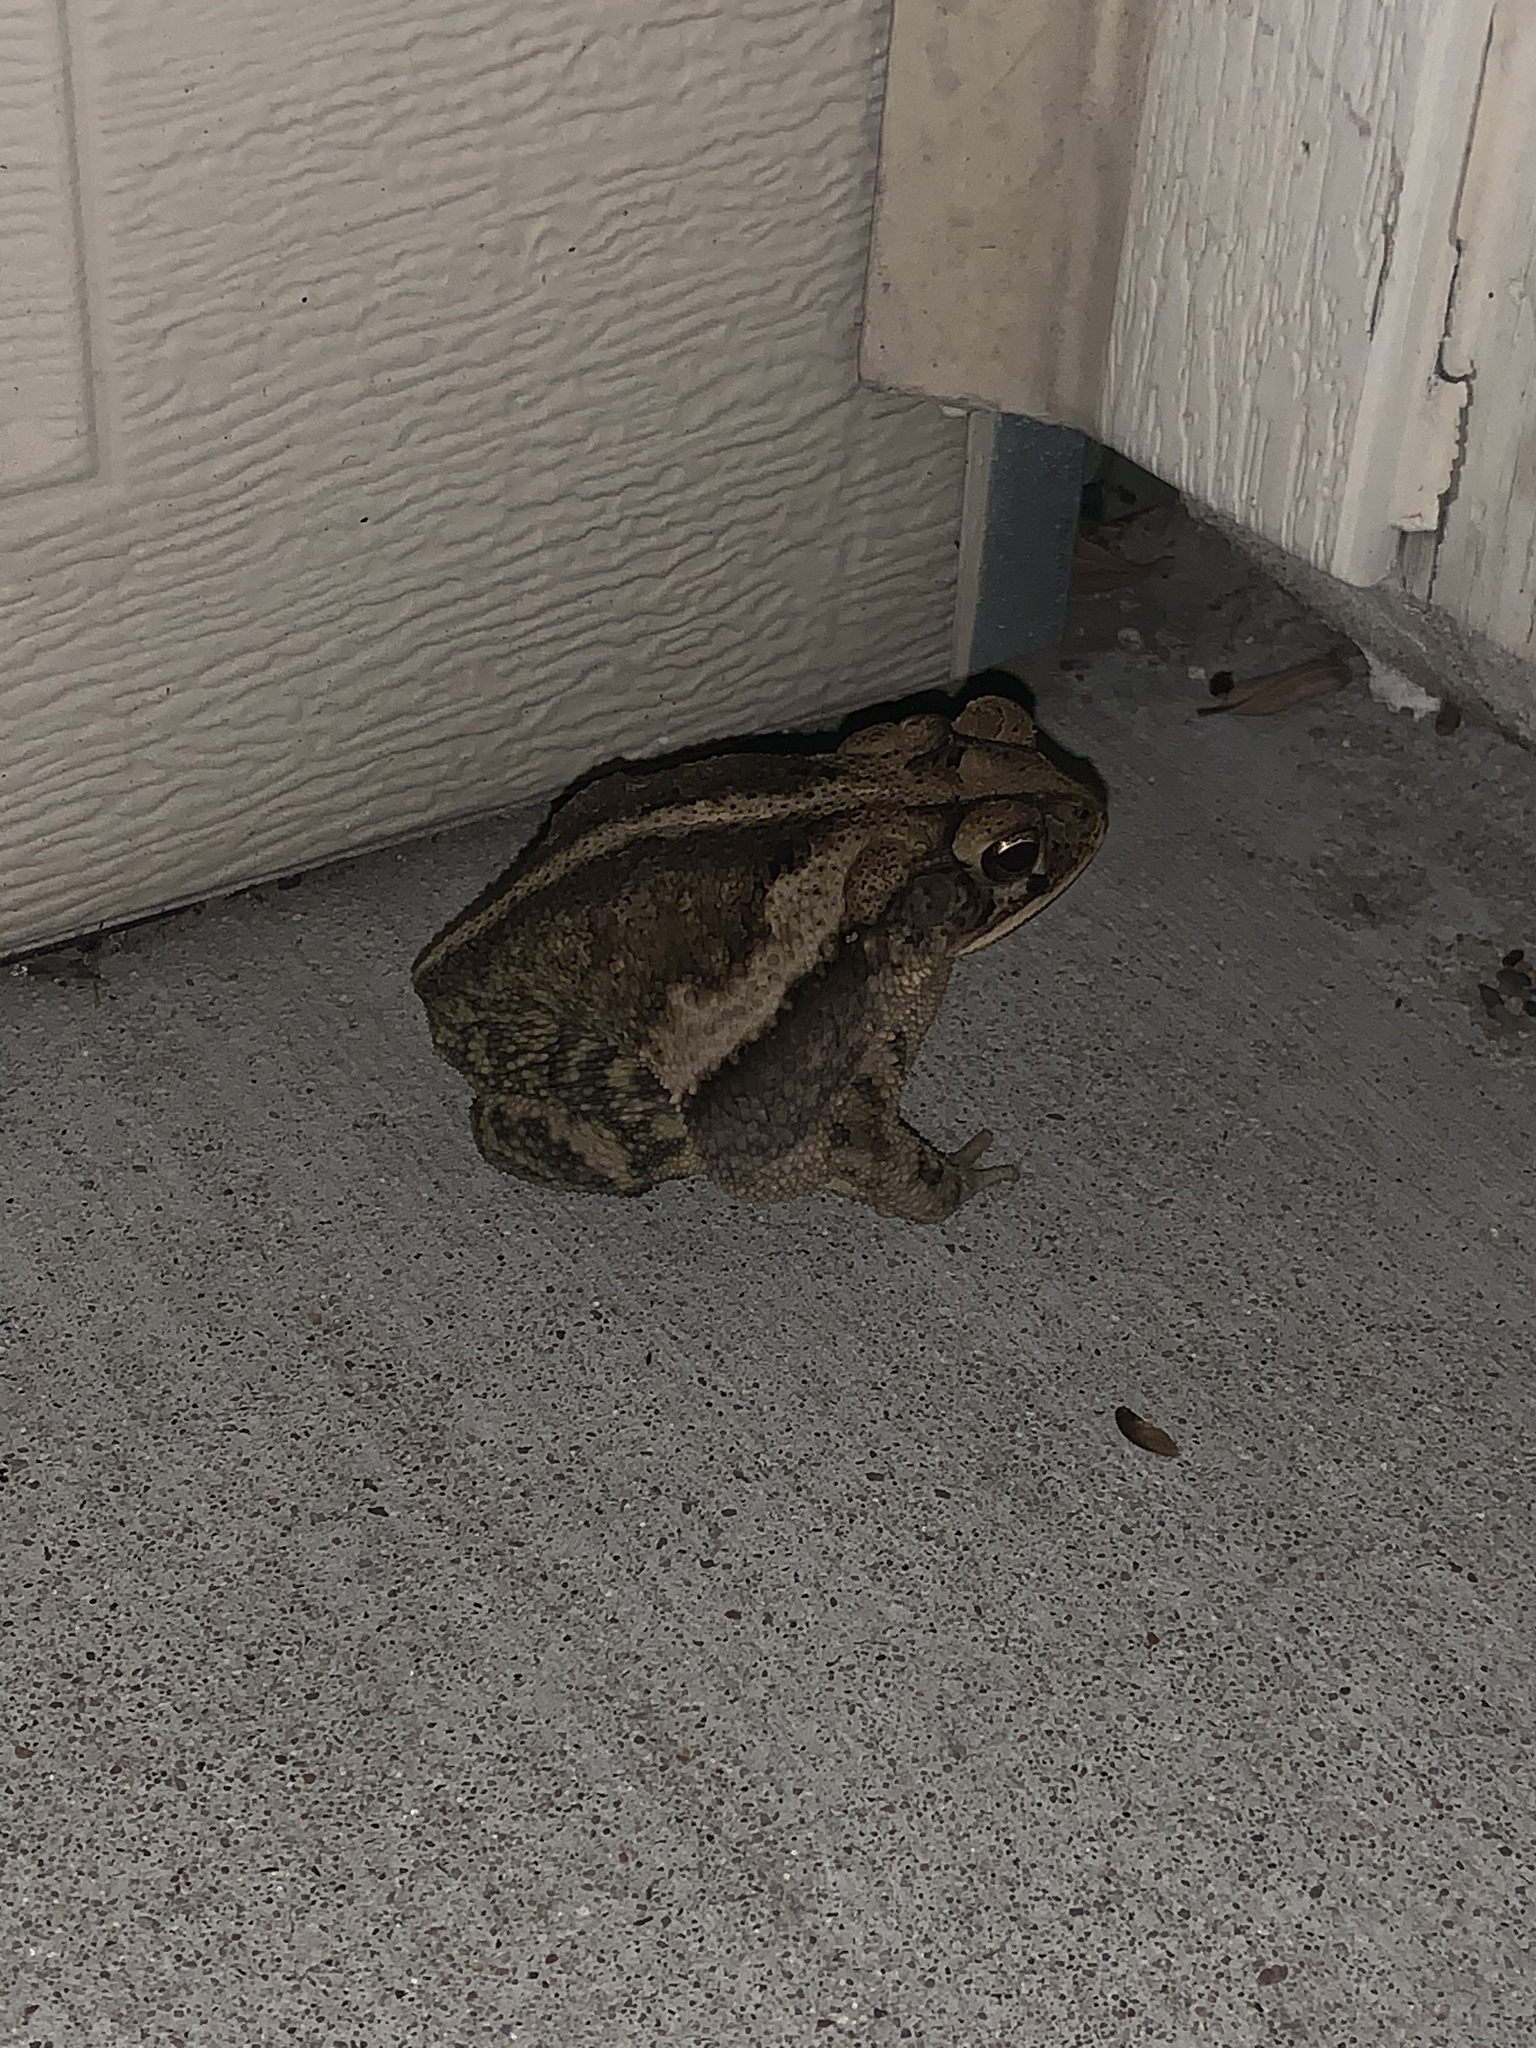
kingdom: Animalia
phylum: Chordata
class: Amphibia
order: Anura
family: Bufonidae
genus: Incilius
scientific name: Incilius nebulifer
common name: Gulf coast toad
